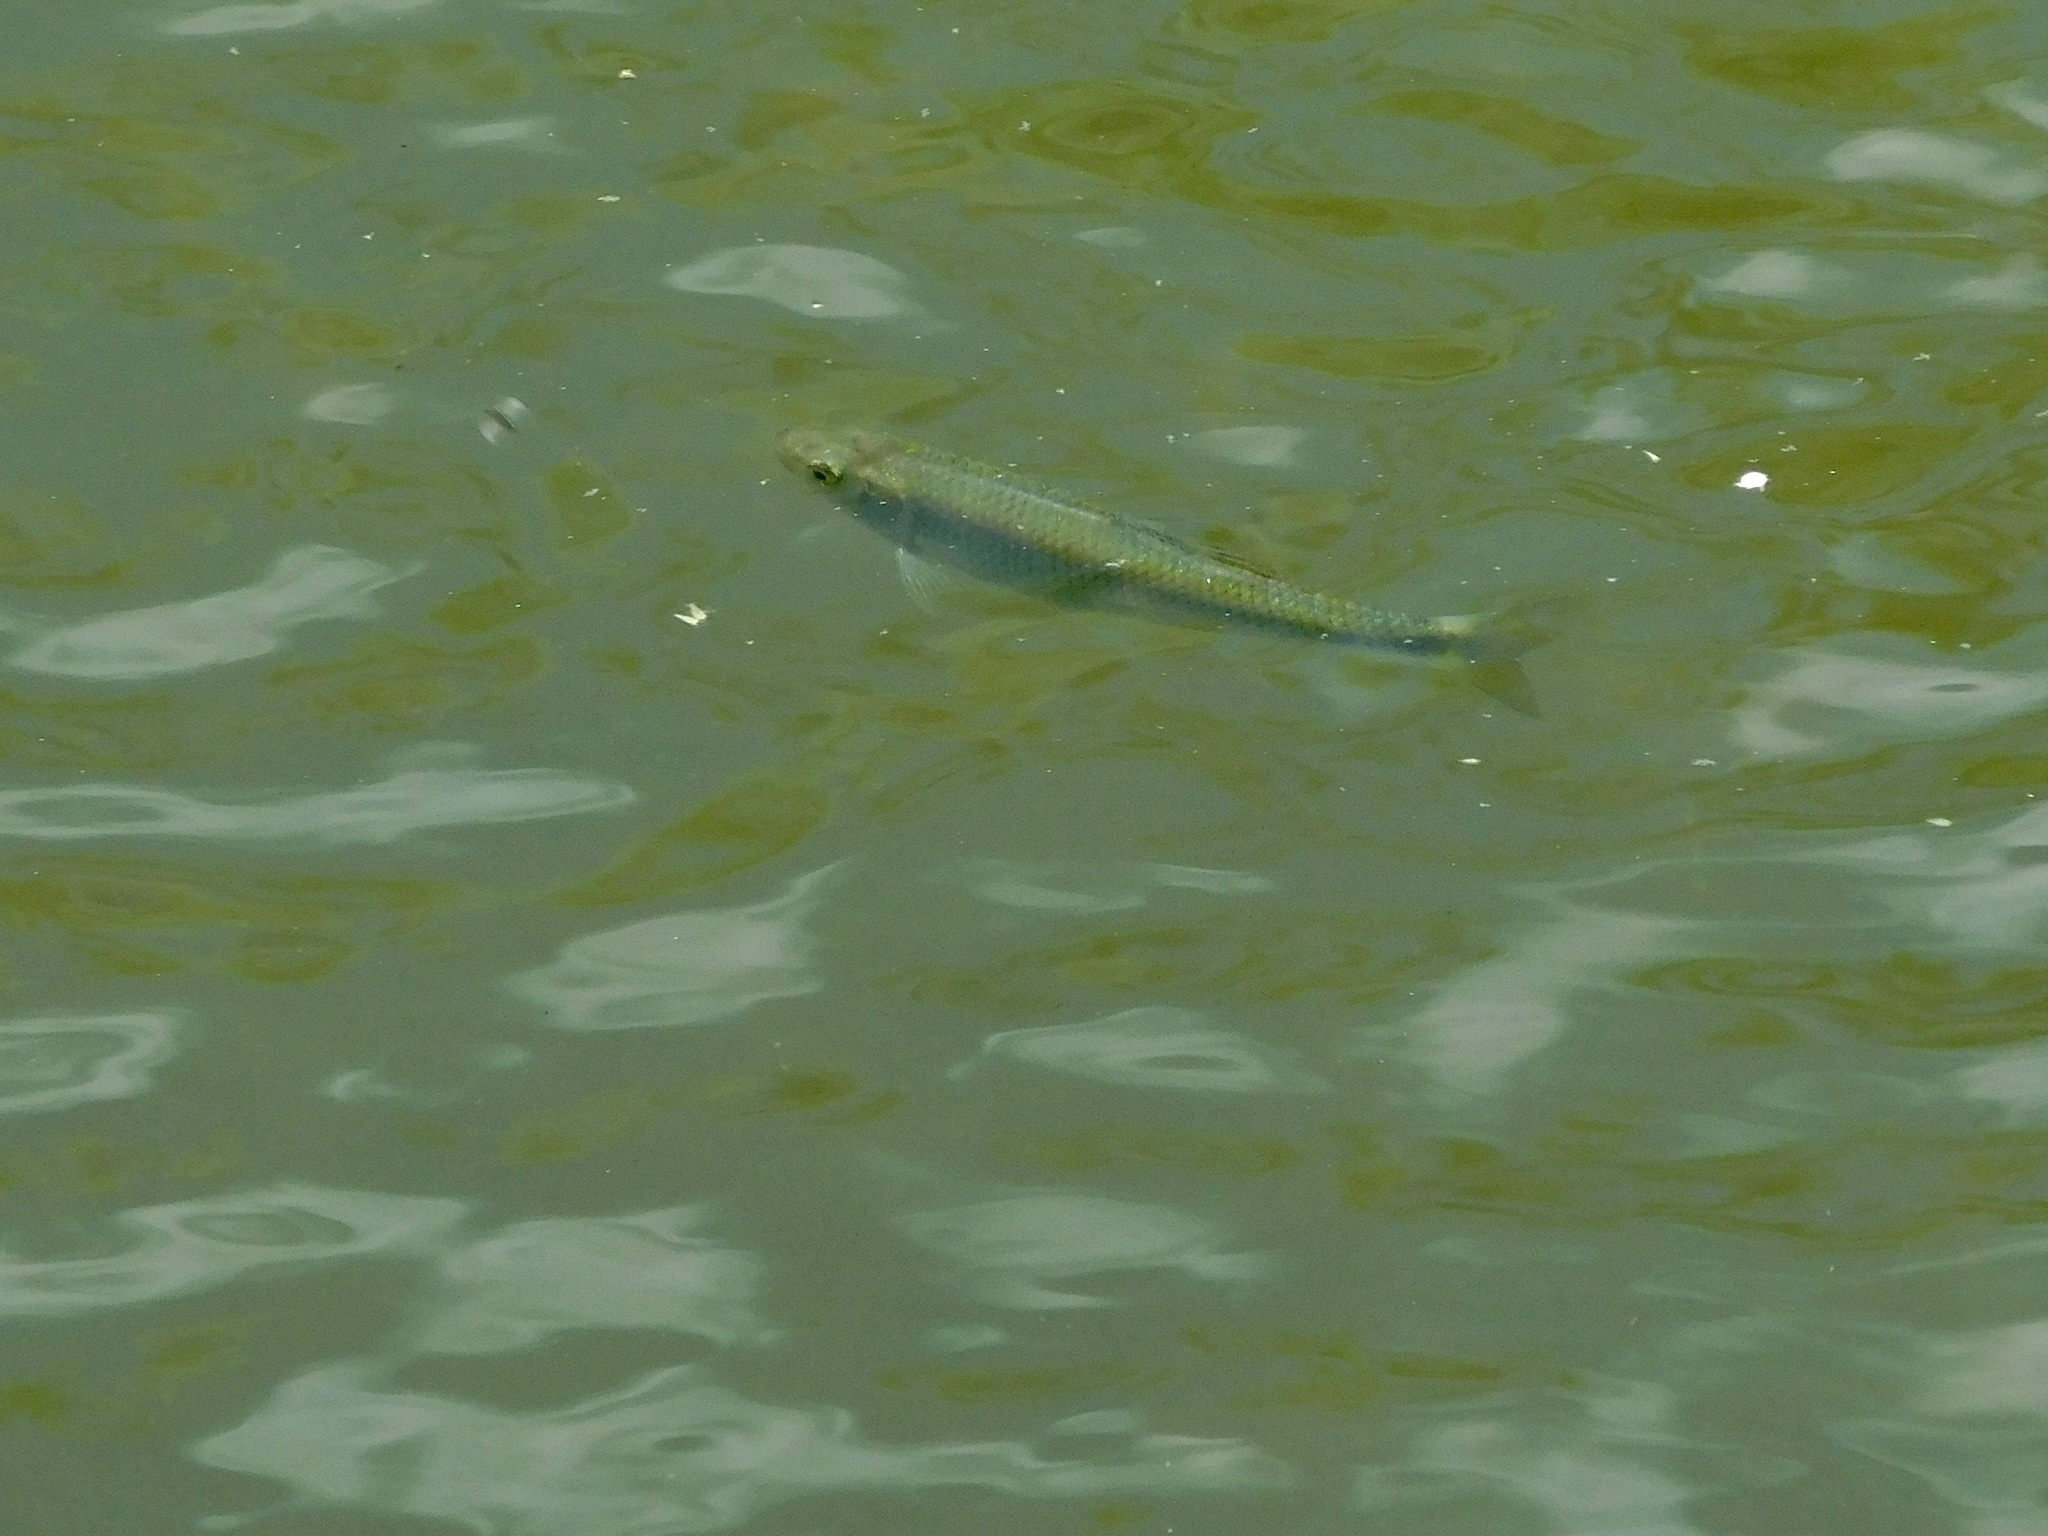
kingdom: Animalia
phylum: Chordata
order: Cypriniformes
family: Cyprinidae
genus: Cyprinella
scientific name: Cyprinella galactura
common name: Whitetail shiner
